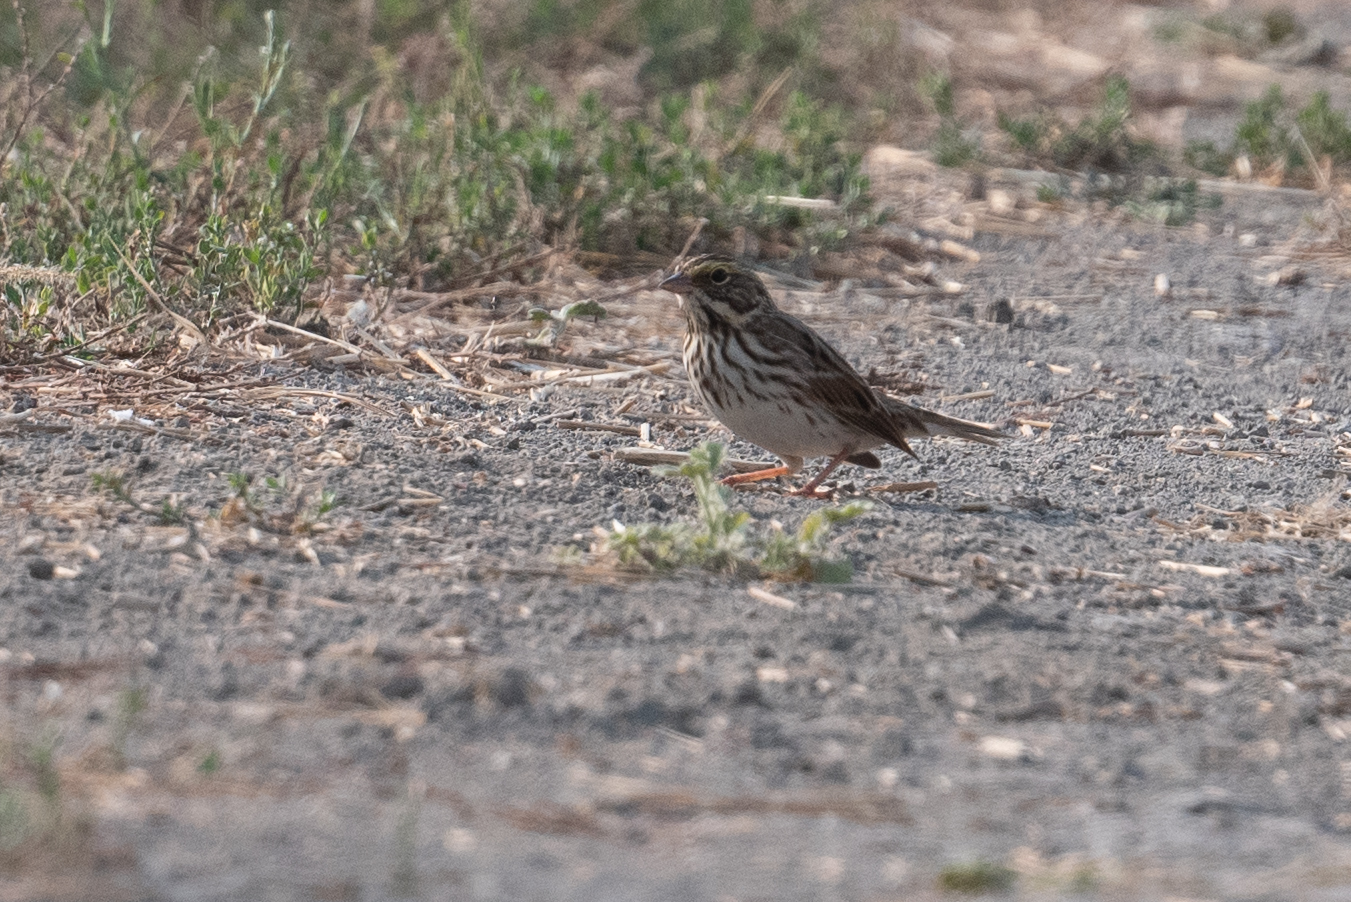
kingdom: Animalia
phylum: Chordata
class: Aves
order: Passeriformes
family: Passerellidae
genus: Passerculus
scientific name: Passerculus sandwichensis
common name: Savannah sparrow
